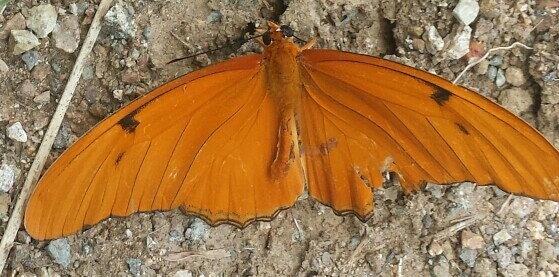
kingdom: Animalia
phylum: Arthropoda
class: Insecta
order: Lepidoptera
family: Nymphalidae
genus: Dryas
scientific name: Dryas iulia
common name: Flambeau
